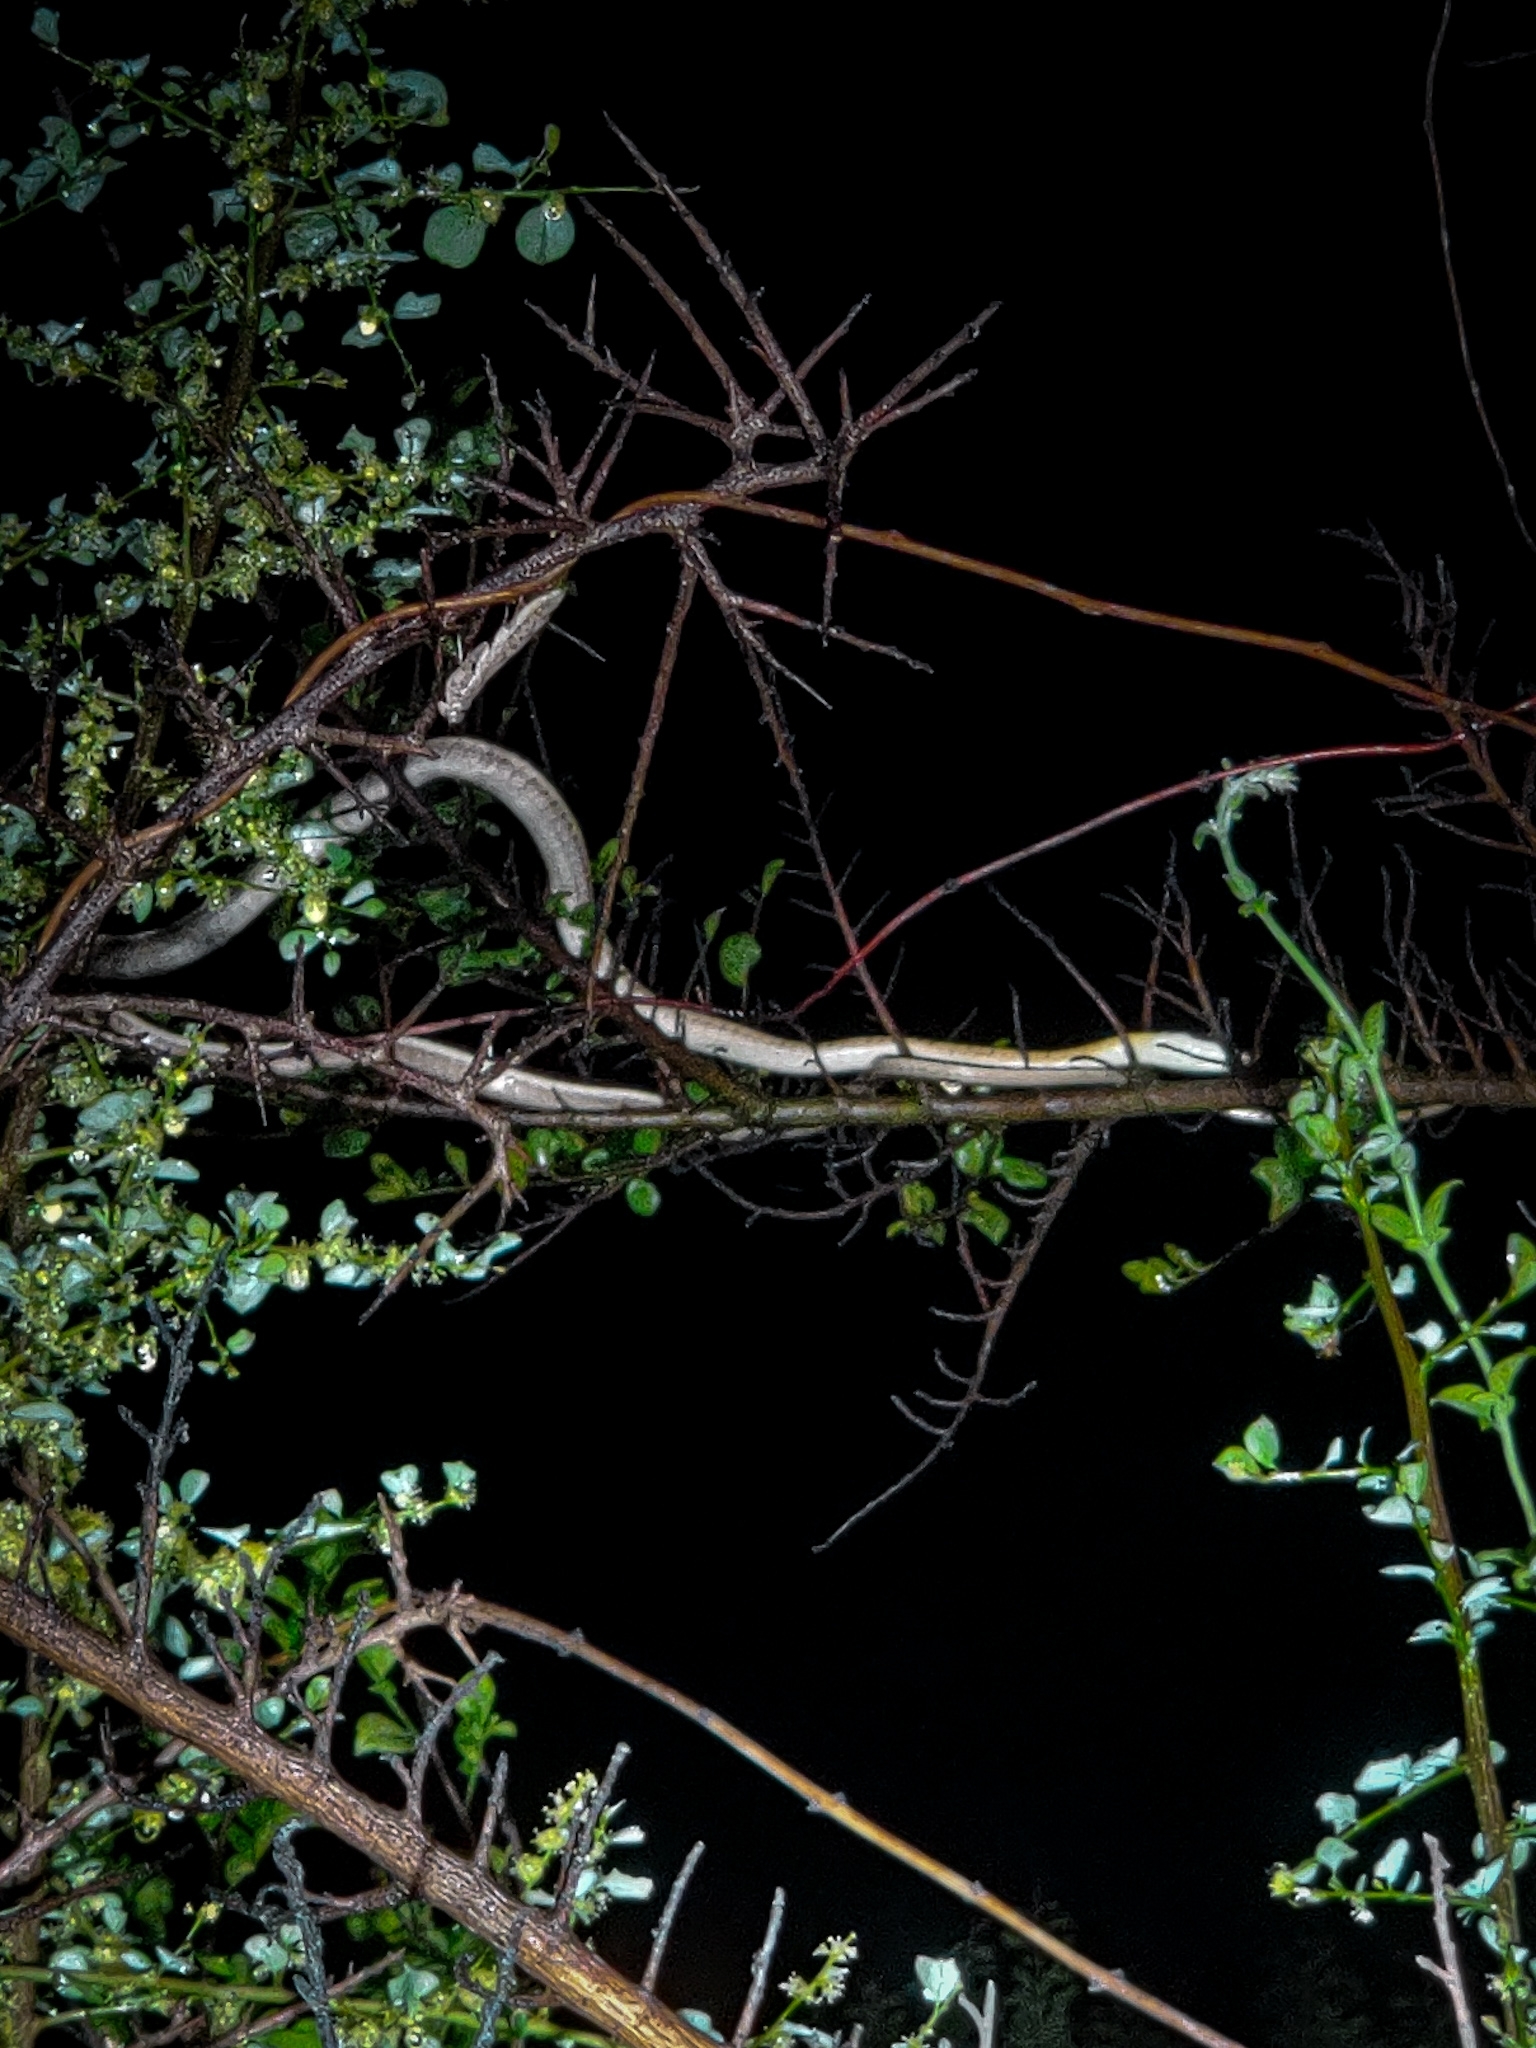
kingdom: Animalia
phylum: Chordata
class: Squamata
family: Colubridae
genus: Dendrelaphis
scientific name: Dendrelaphis tristis
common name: Daudin's bronzeback
